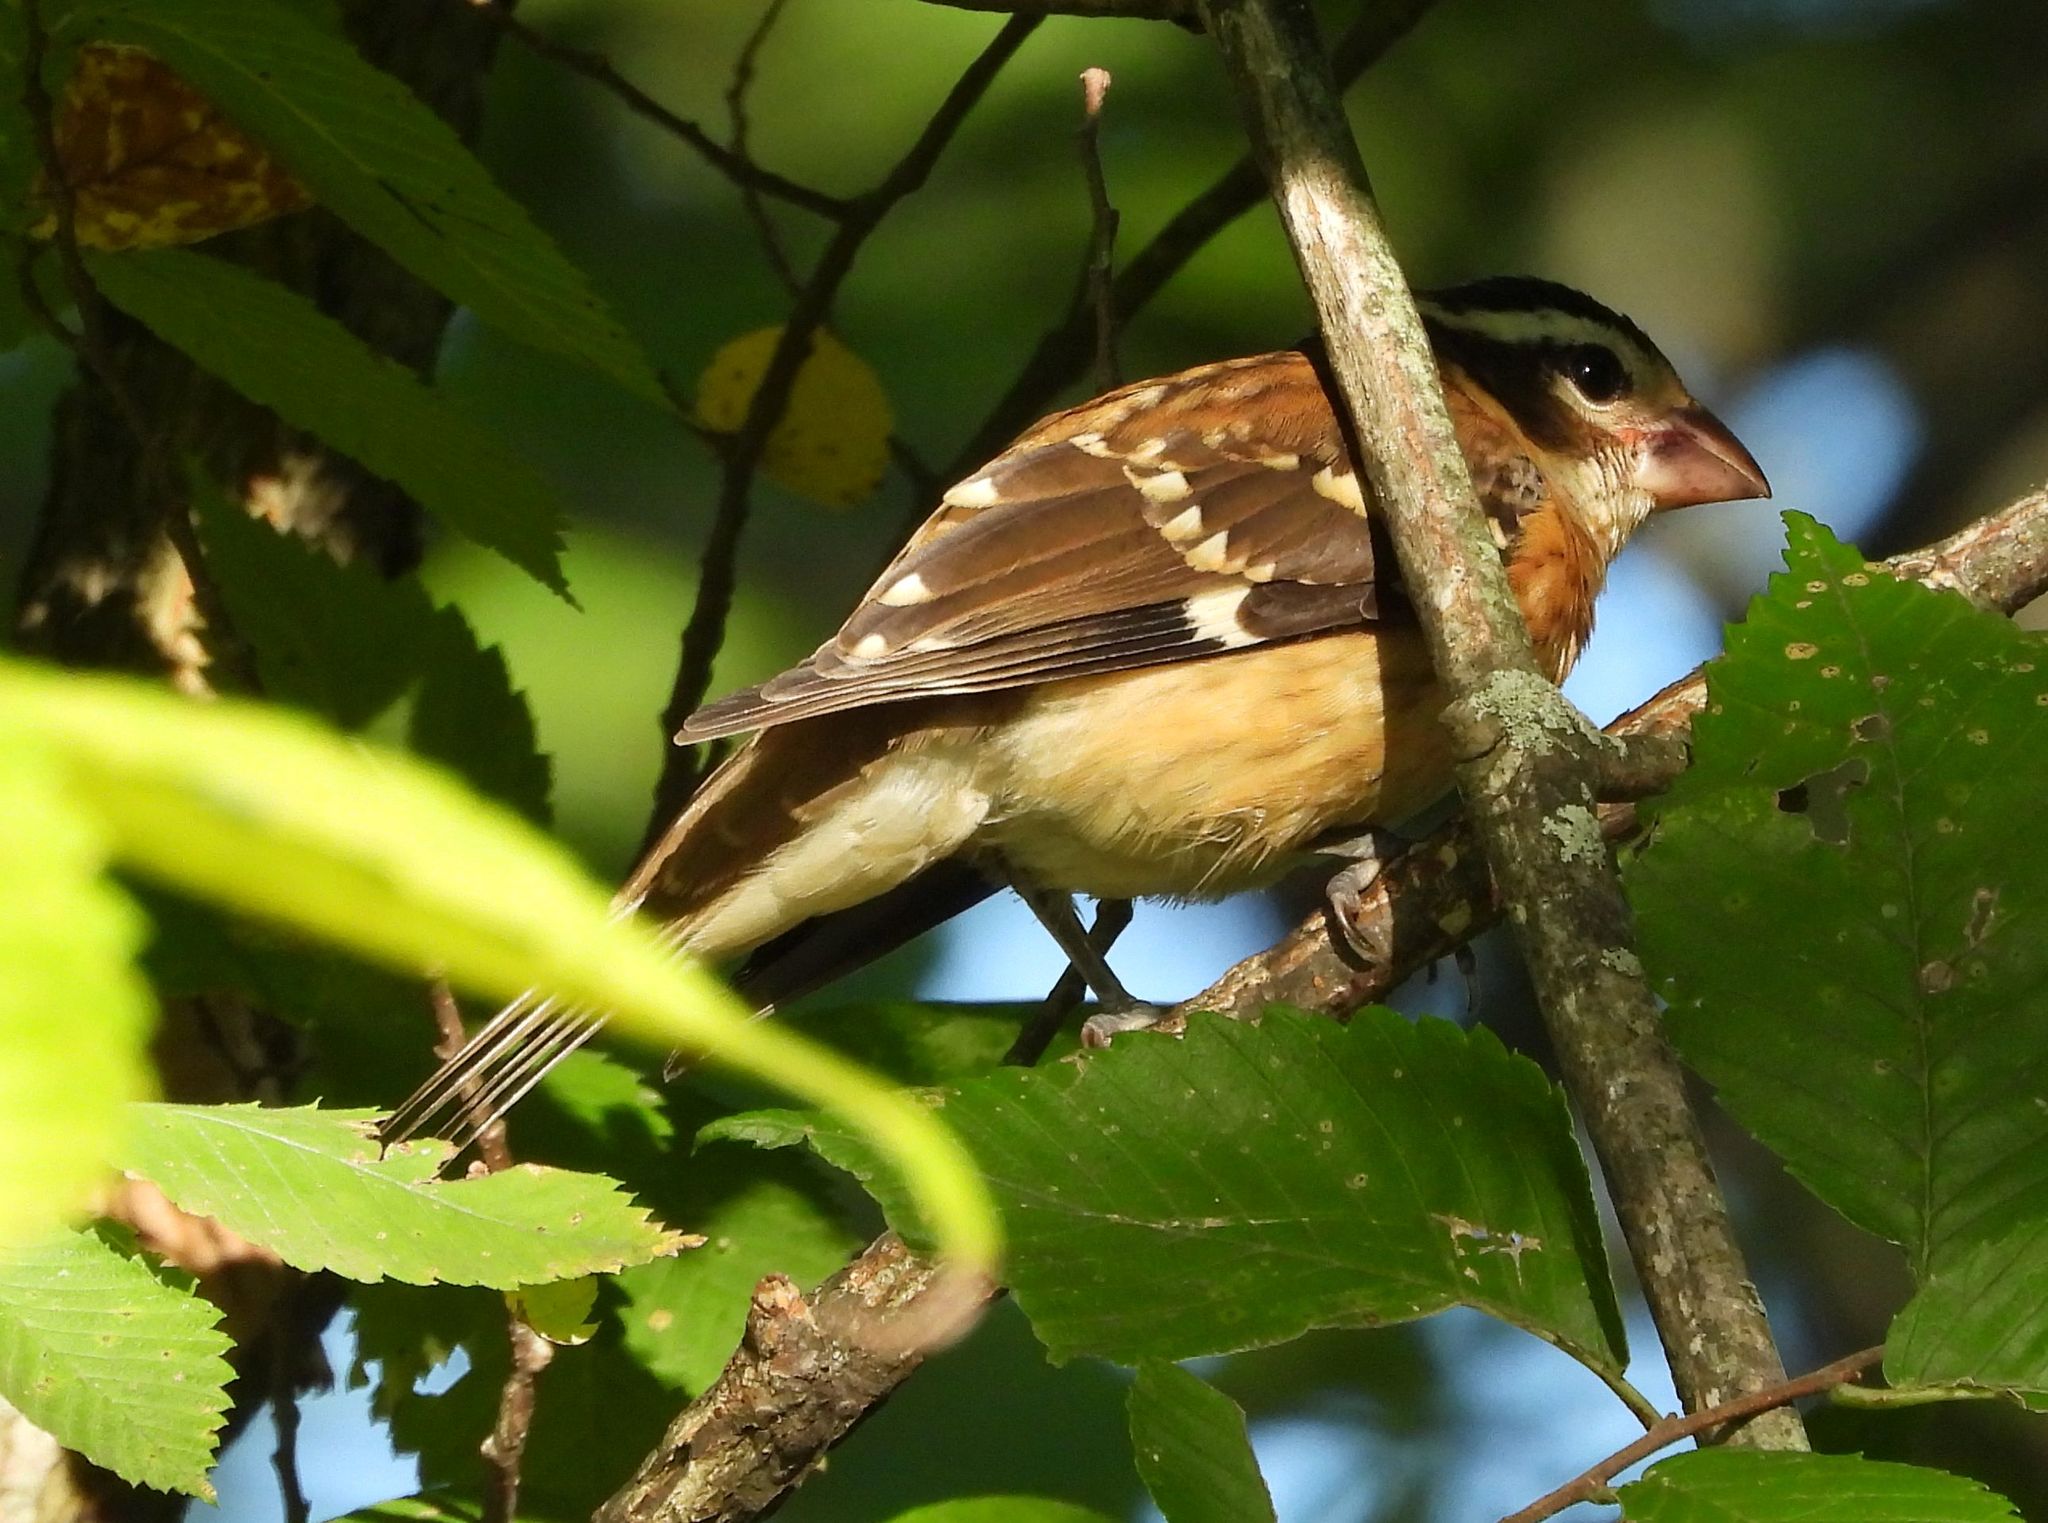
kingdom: Animalia
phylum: Chordata
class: Aves
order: Passeriformes
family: Cardinalidae
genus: Pheucticus
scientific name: Pheucticus ludovicianus
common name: Rose-breasted grosbeak
